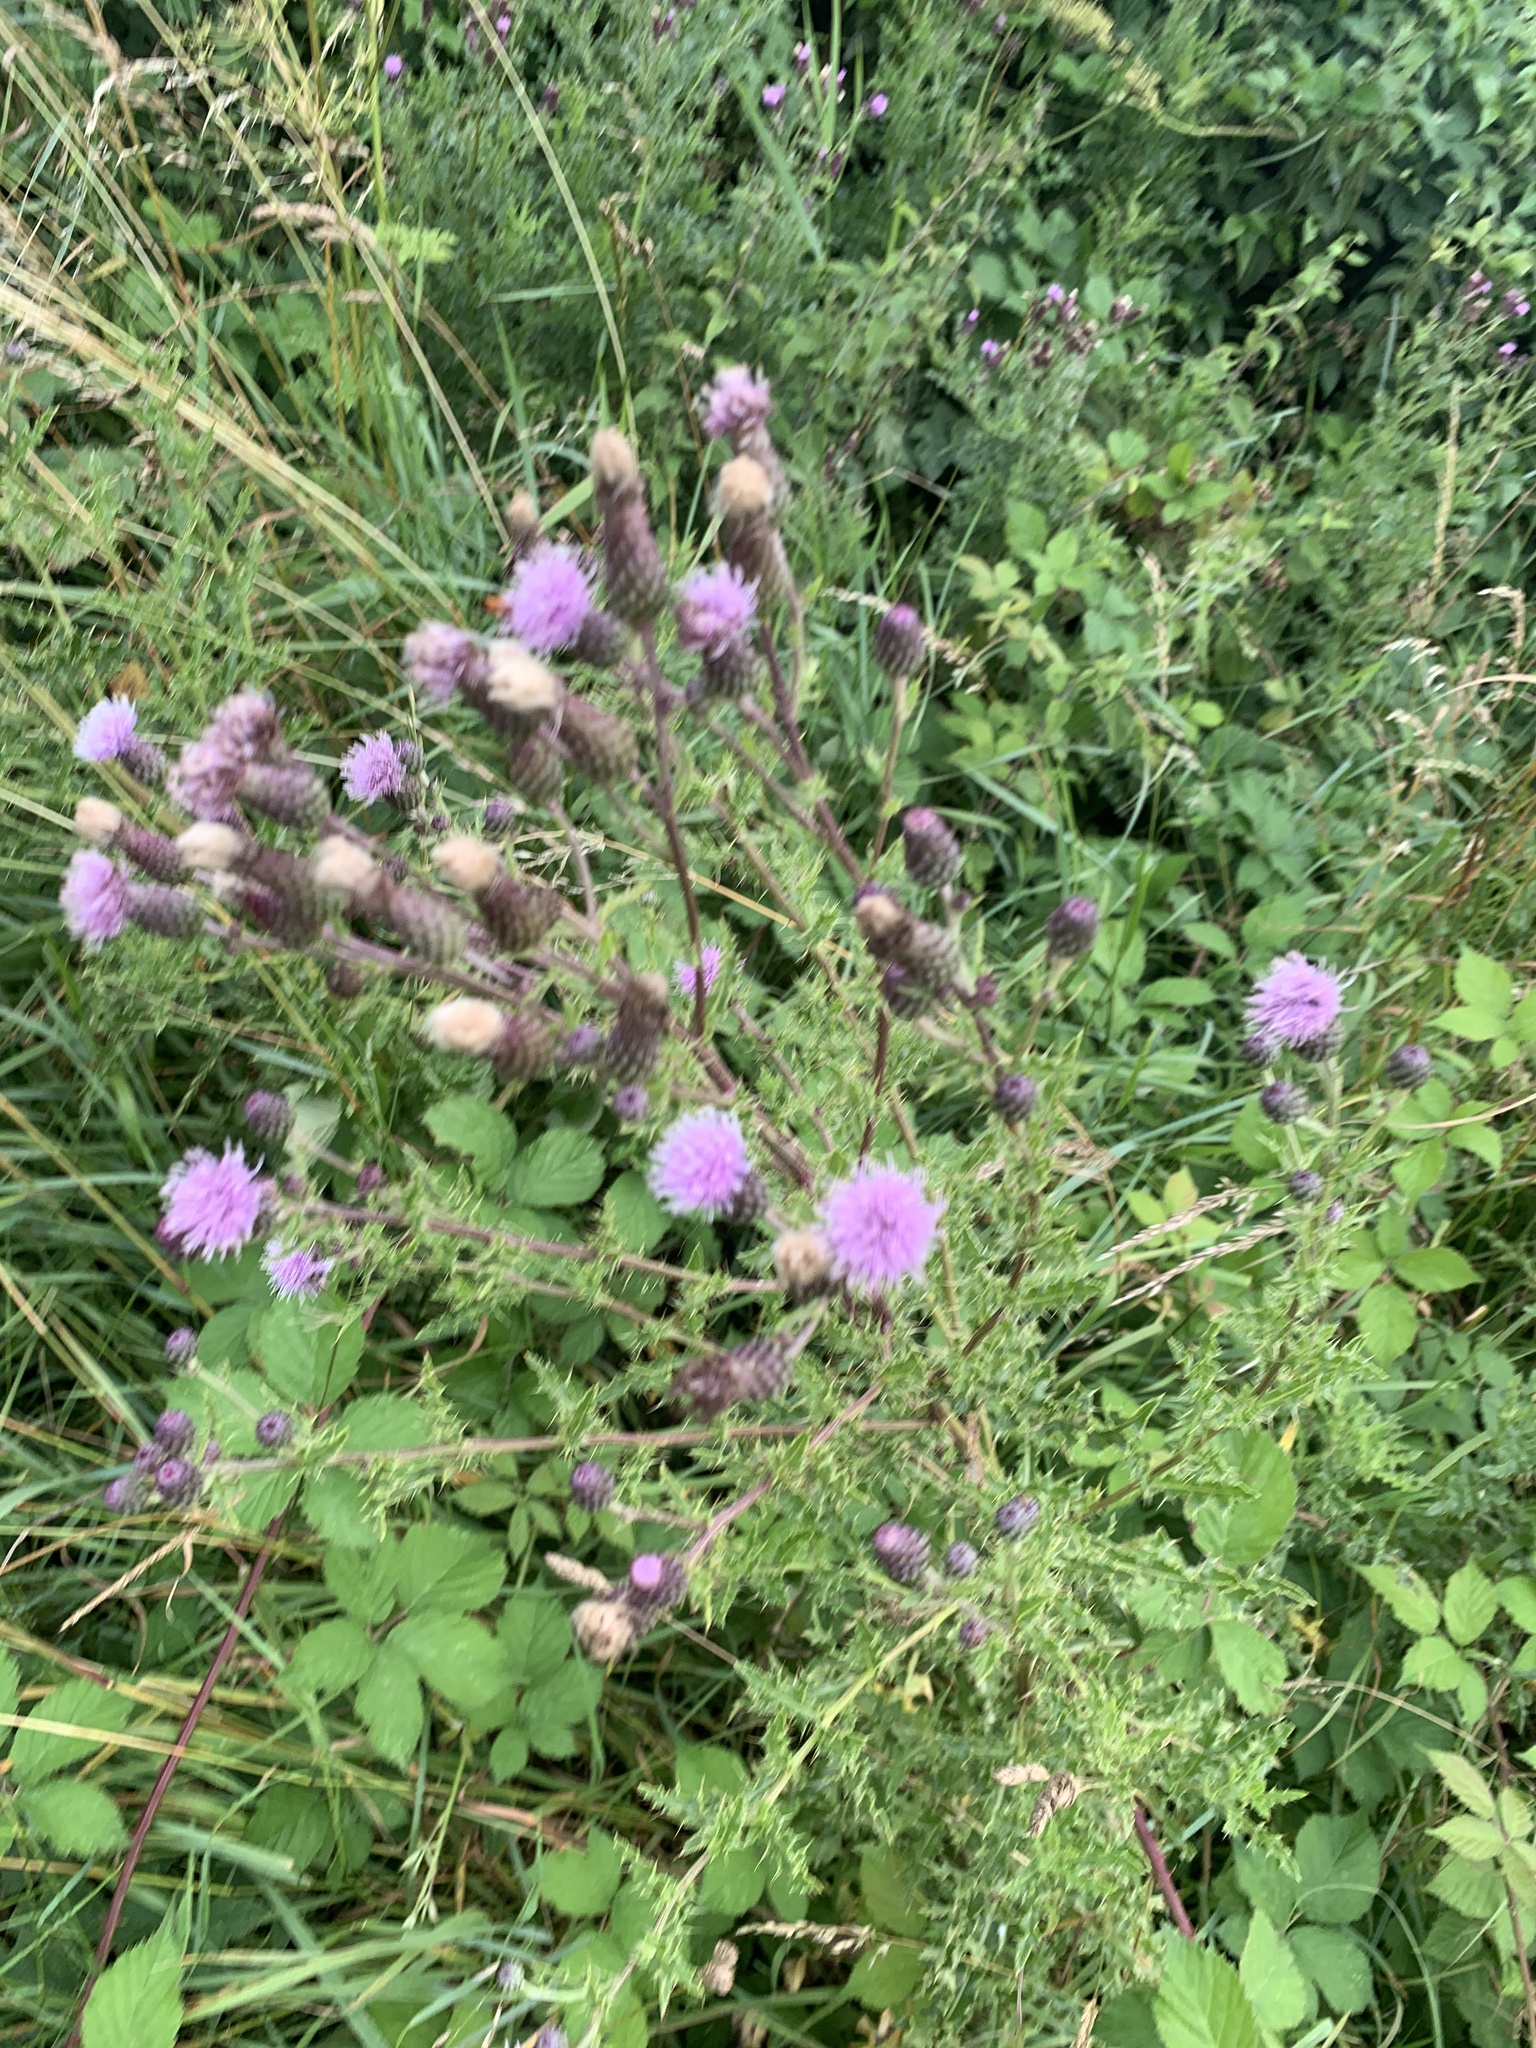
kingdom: Plantae
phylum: Tracheophyta
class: Magnoliopsida
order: Asterales
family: Asteraceae
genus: Cirsium
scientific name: Cirsium arvense
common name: Creeping thistle
